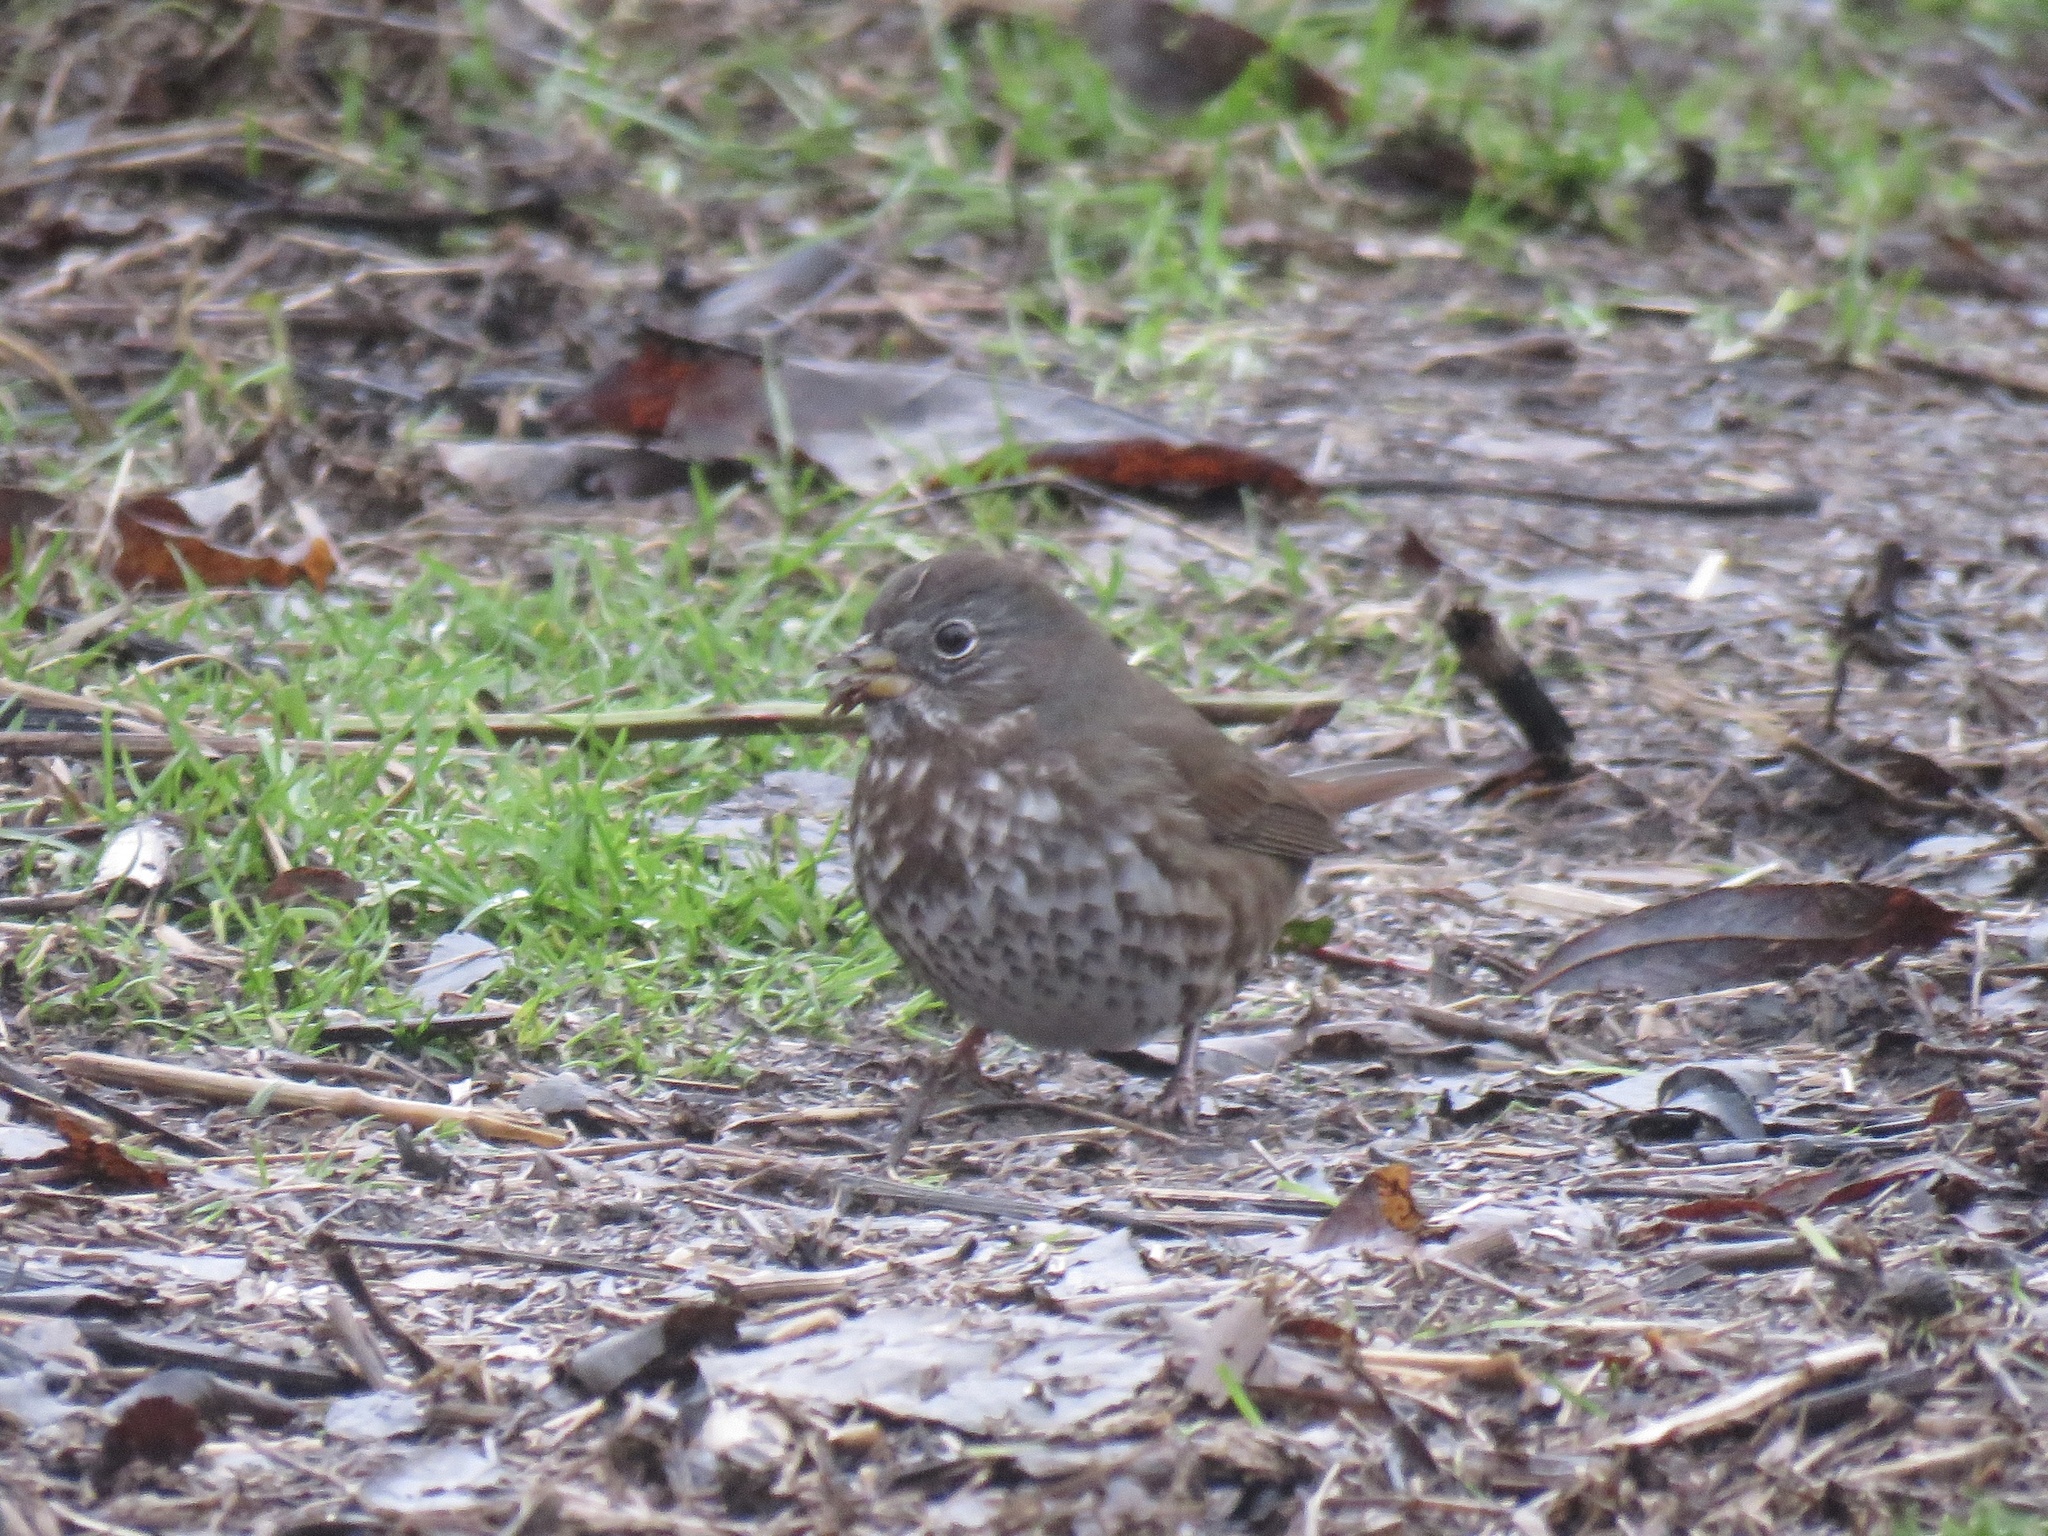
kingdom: Animalia
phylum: Chordata
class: Aves
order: Passeriformes
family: Passerellidae
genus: Passerella
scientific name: Passerella iliaca
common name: Fox sparrow
